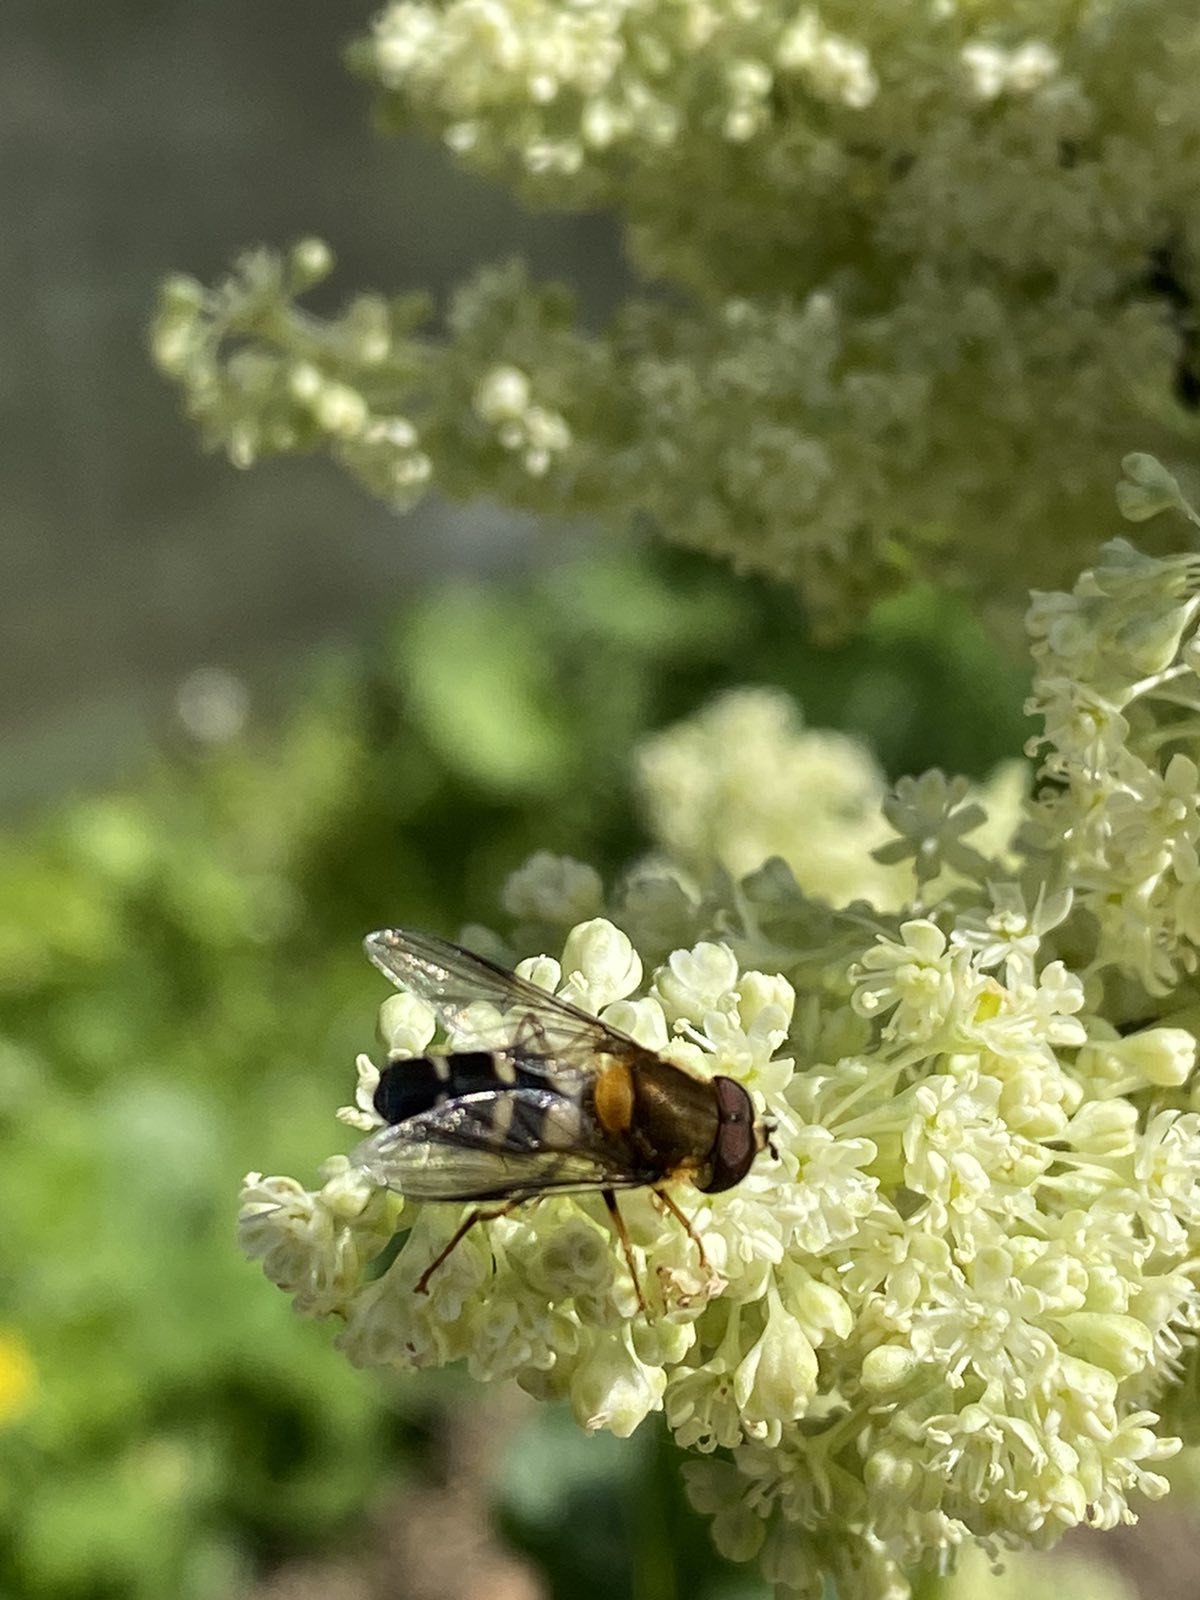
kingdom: Animalia
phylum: Arthropoda
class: Insecta
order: Diptera
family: Syrphidae
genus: Leucozona
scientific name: Leucozona glaucia
